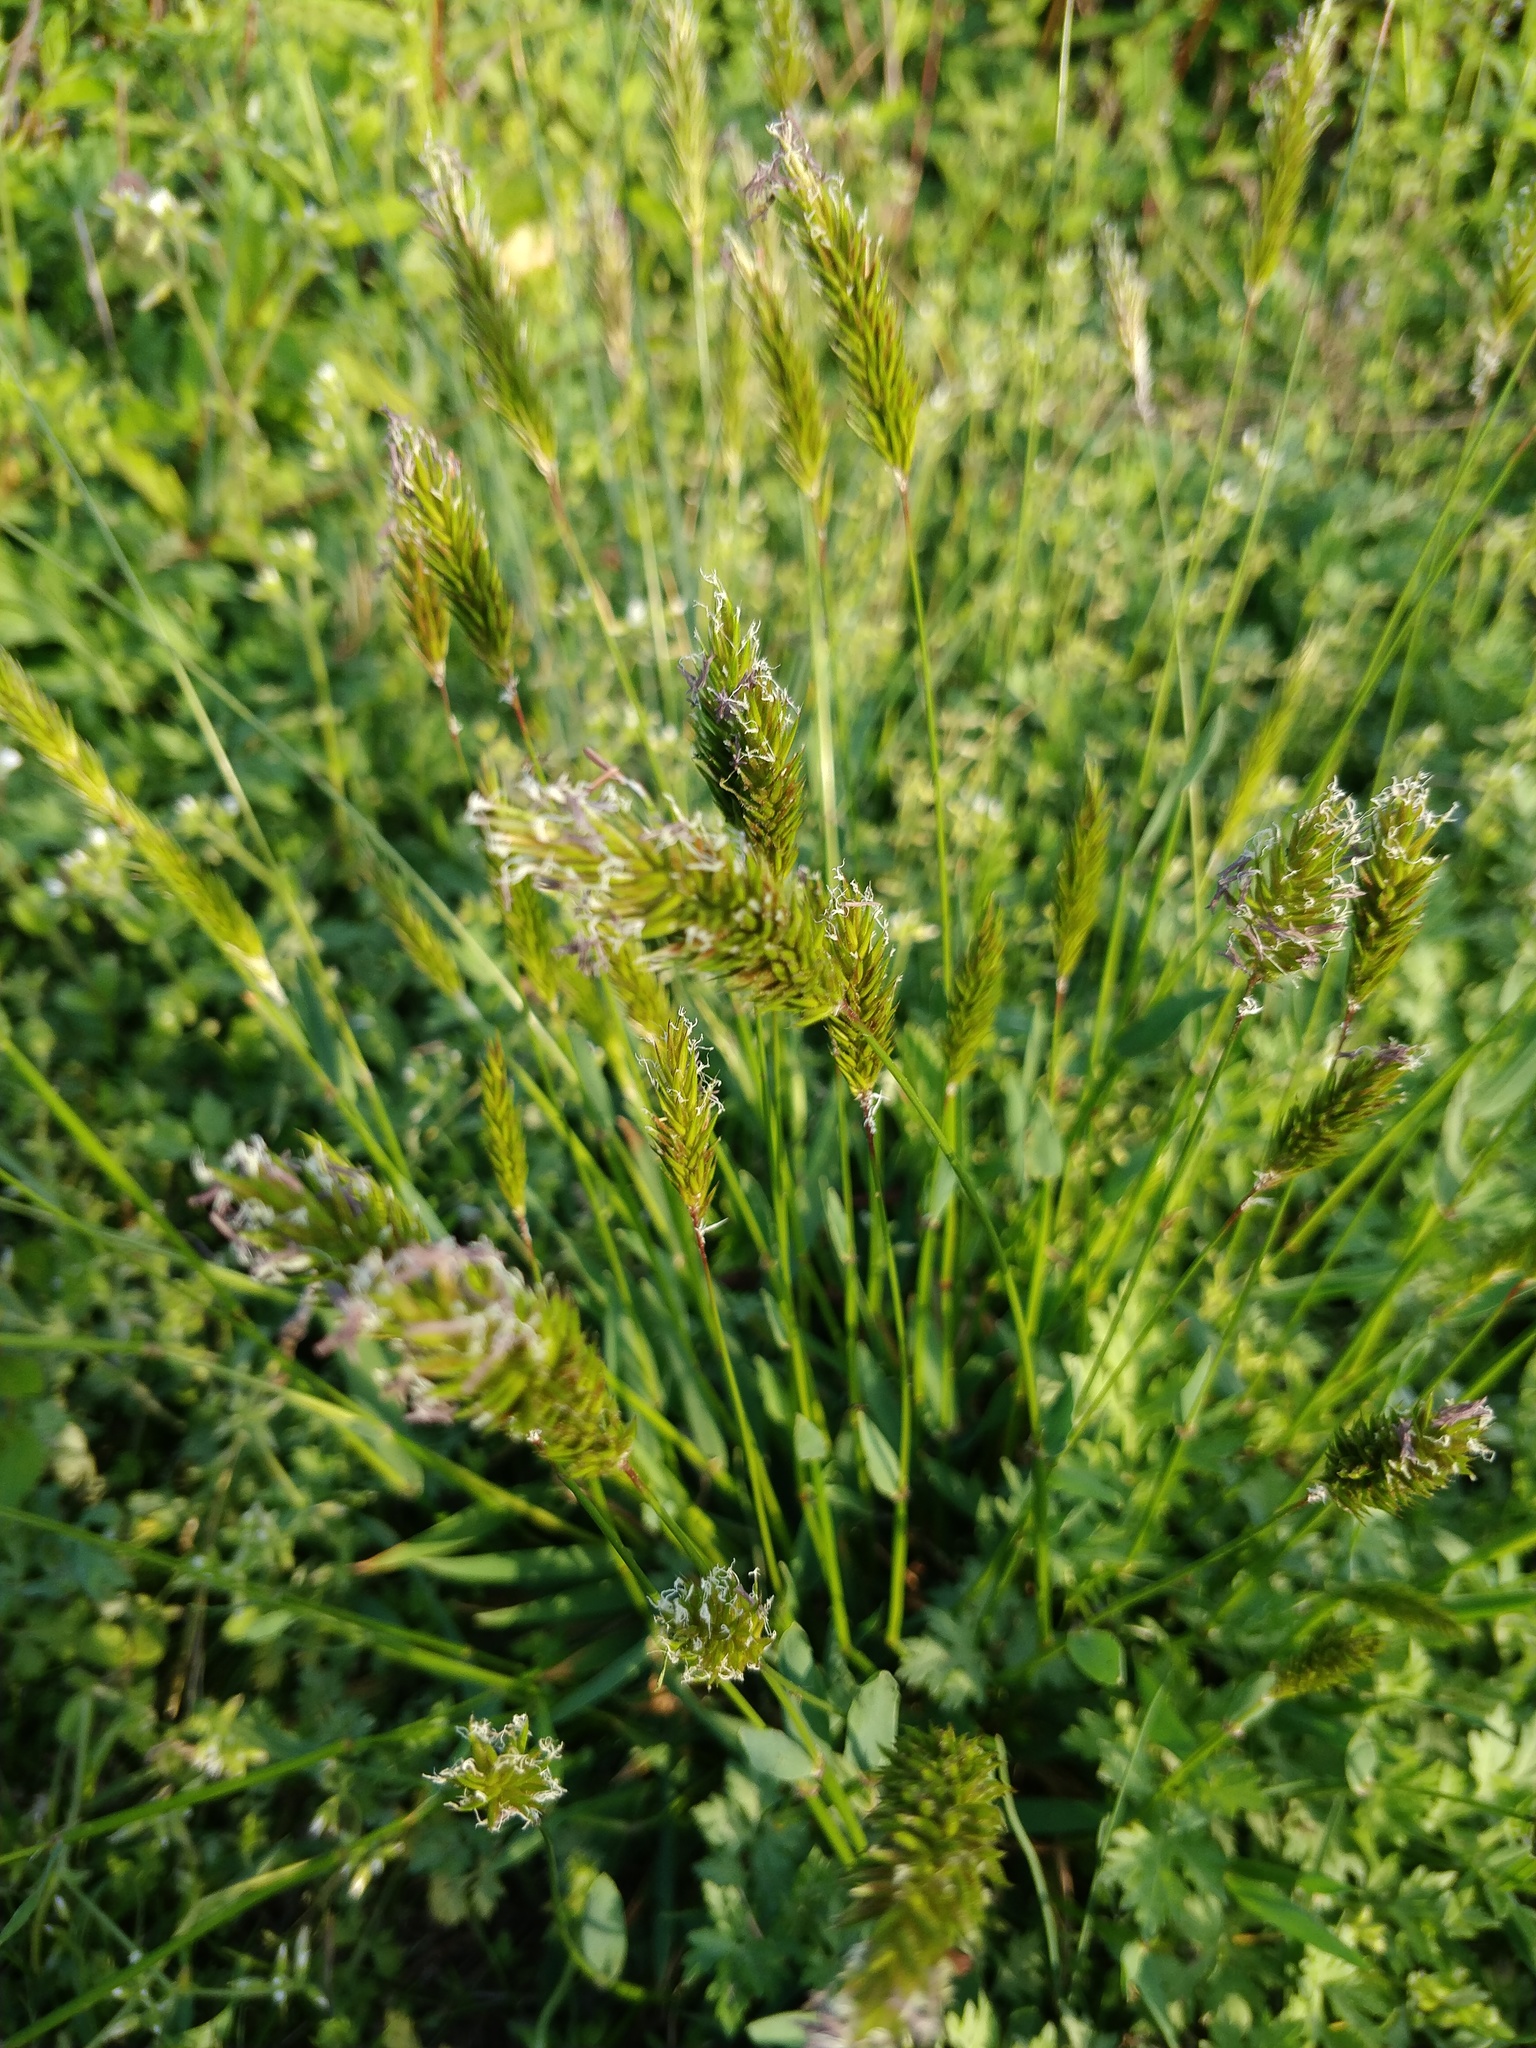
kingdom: Plantae
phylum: Tracheophyta
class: Liliopsida
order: Poales
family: Poaceae
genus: Anthoxanthum
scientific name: Anthoxanthum odoratum
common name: Sweet vernalgrass
